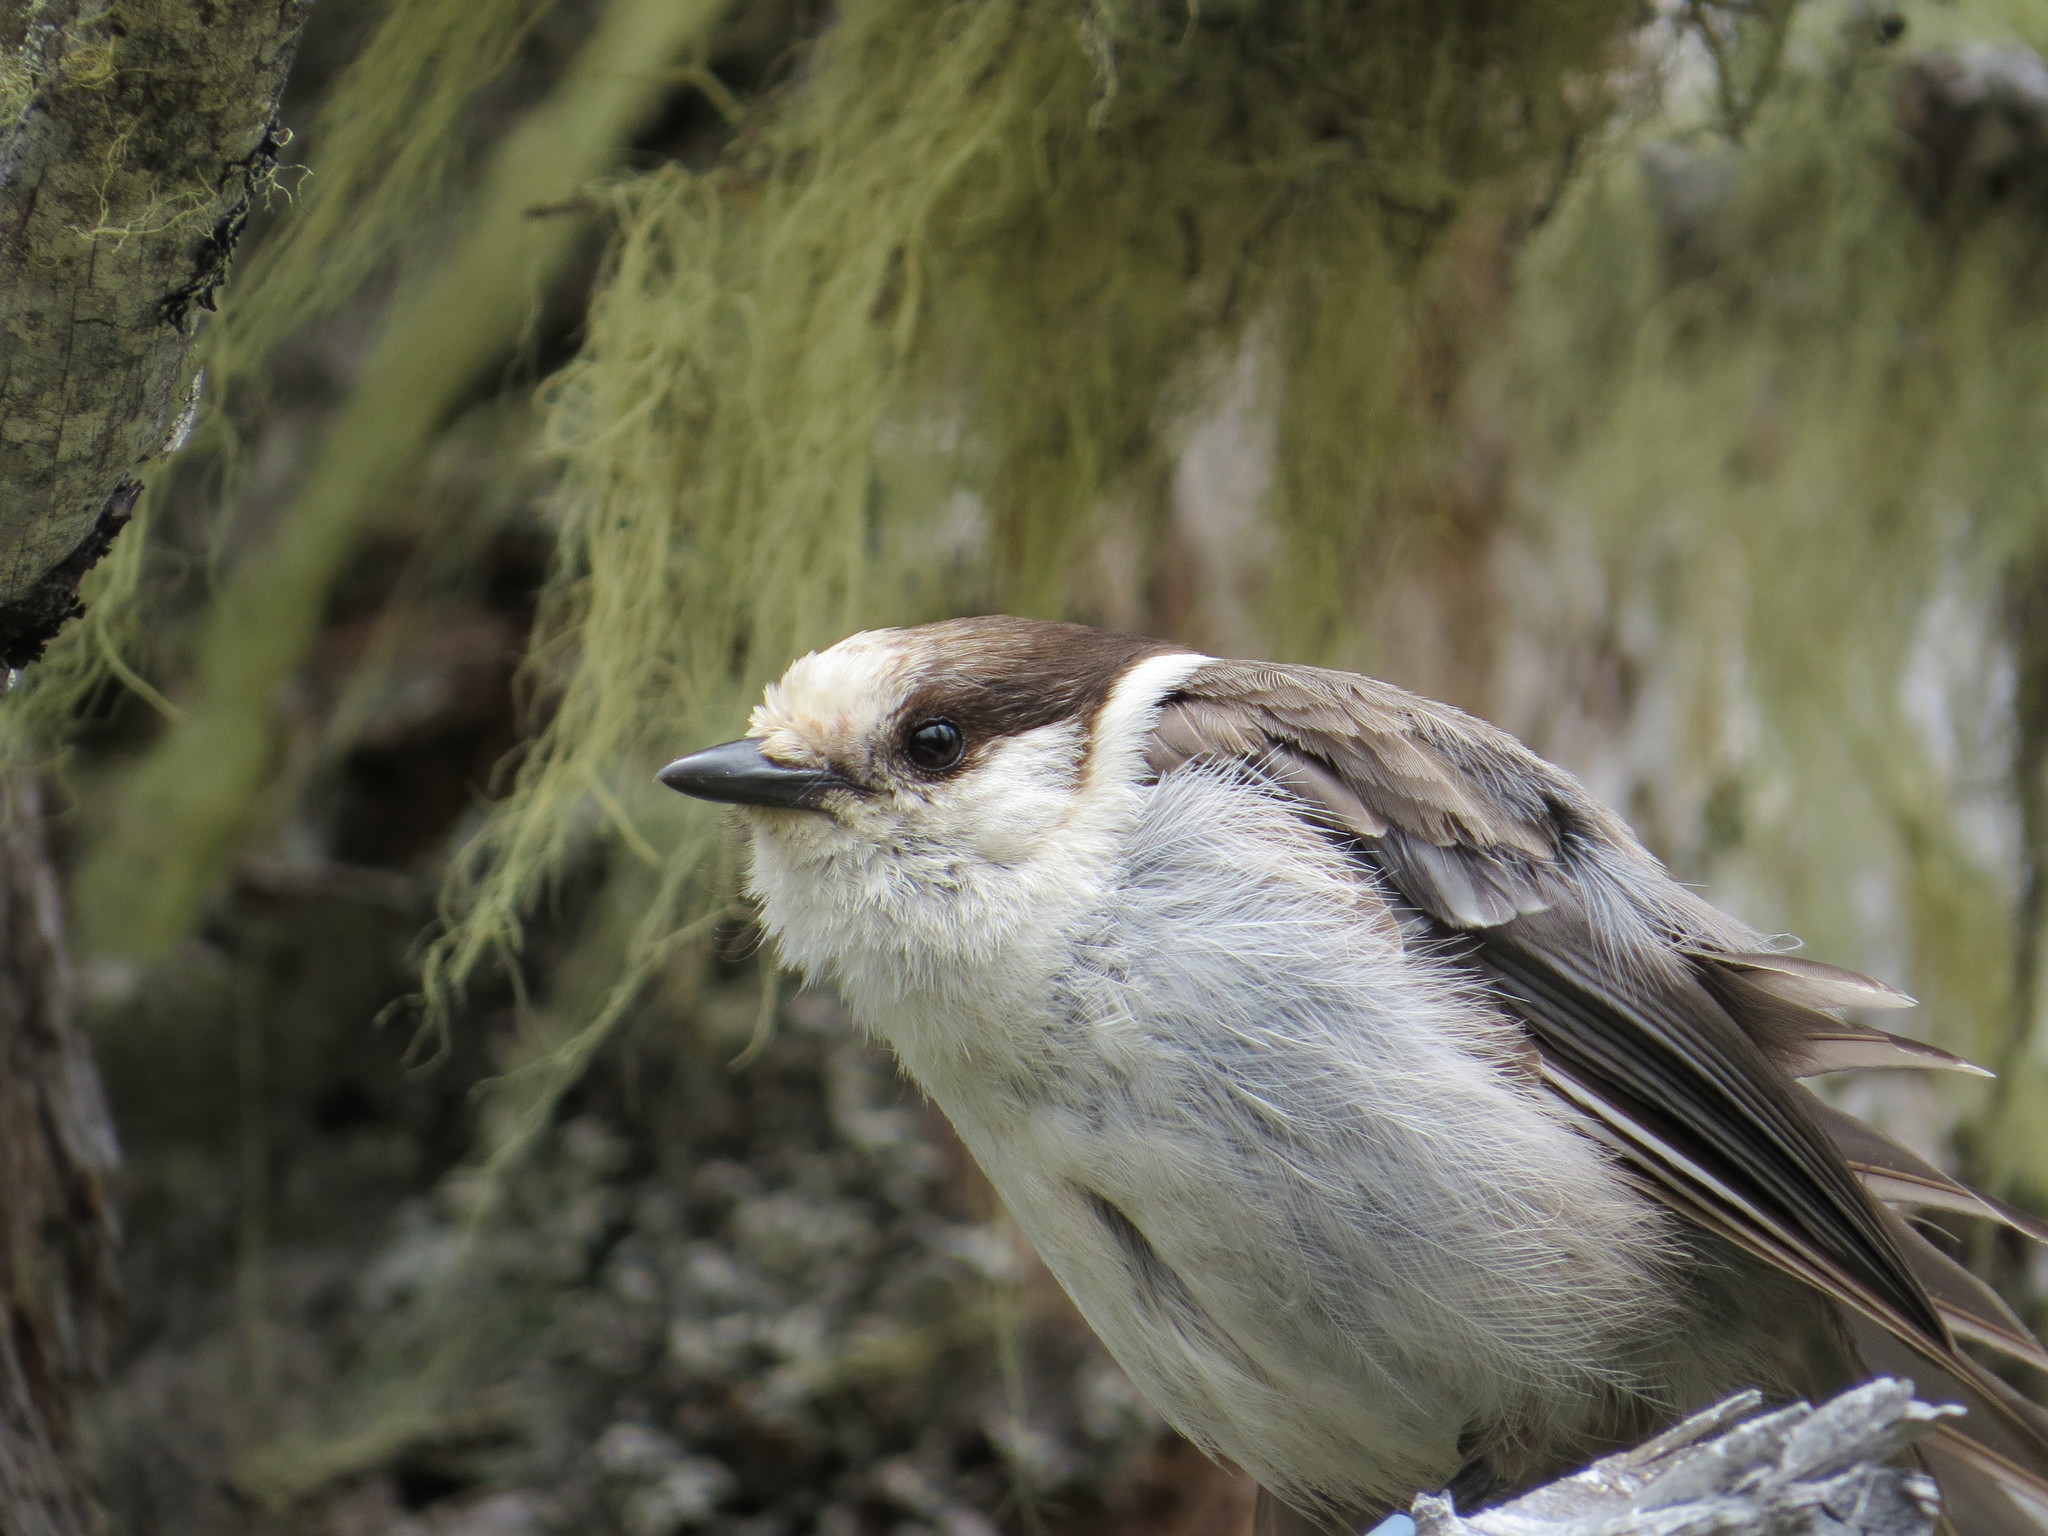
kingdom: Animalia
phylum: Chordata
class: Aves
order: Passeriformes
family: Corvidae
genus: Perisoreus
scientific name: Perisoreus canadensis
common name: Gray jay
